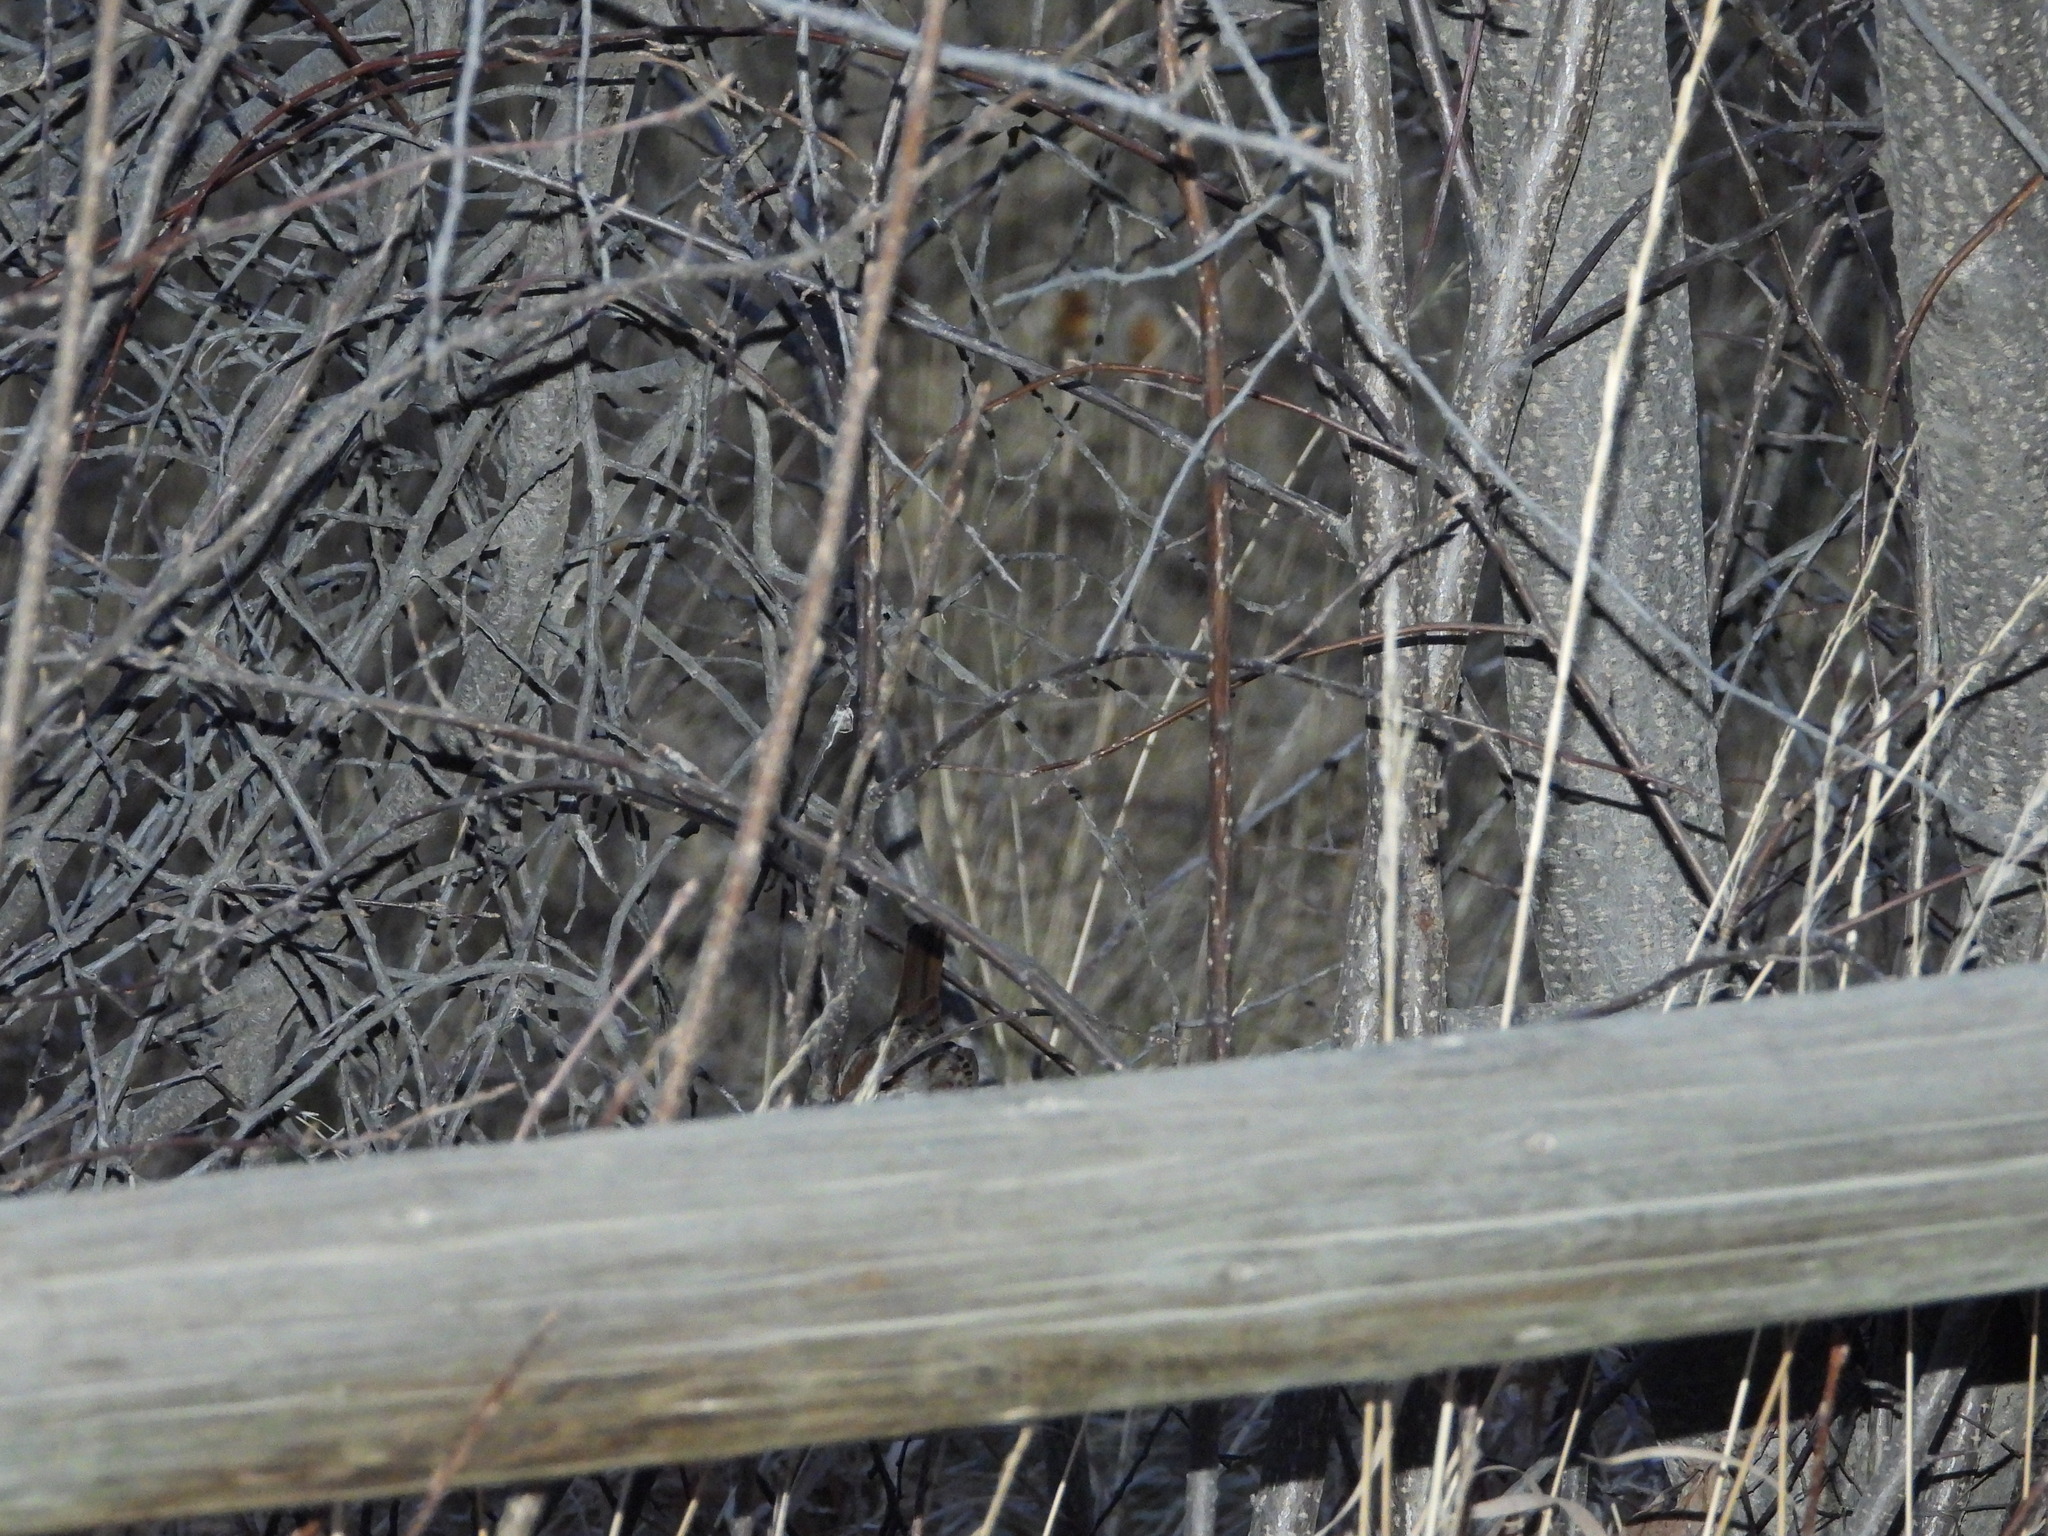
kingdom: Animalia
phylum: Chordata
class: Aves
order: Passeriformes
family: Passerellidae
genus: Melospiza
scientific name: Melospiza melodia
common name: Song sparrow
